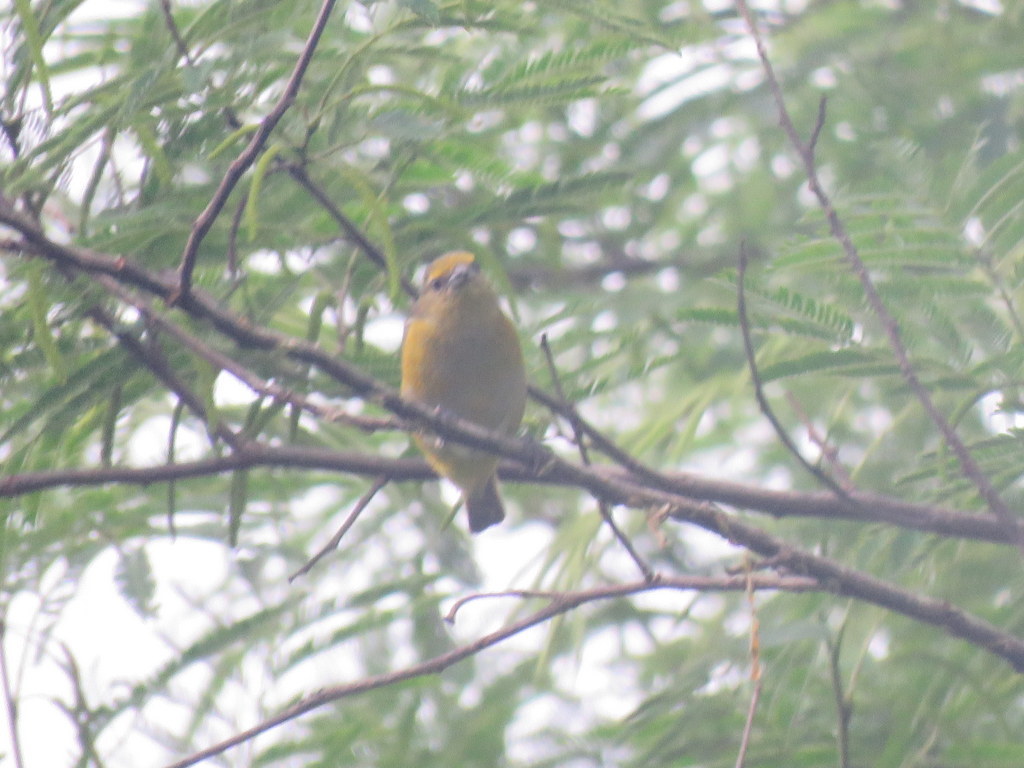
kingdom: Animalia
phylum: Chordata
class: Aves
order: Passeriformes
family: Fringillidae
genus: Euphonia
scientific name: Euphonia chlorotica
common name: Purple-throated euphonia
